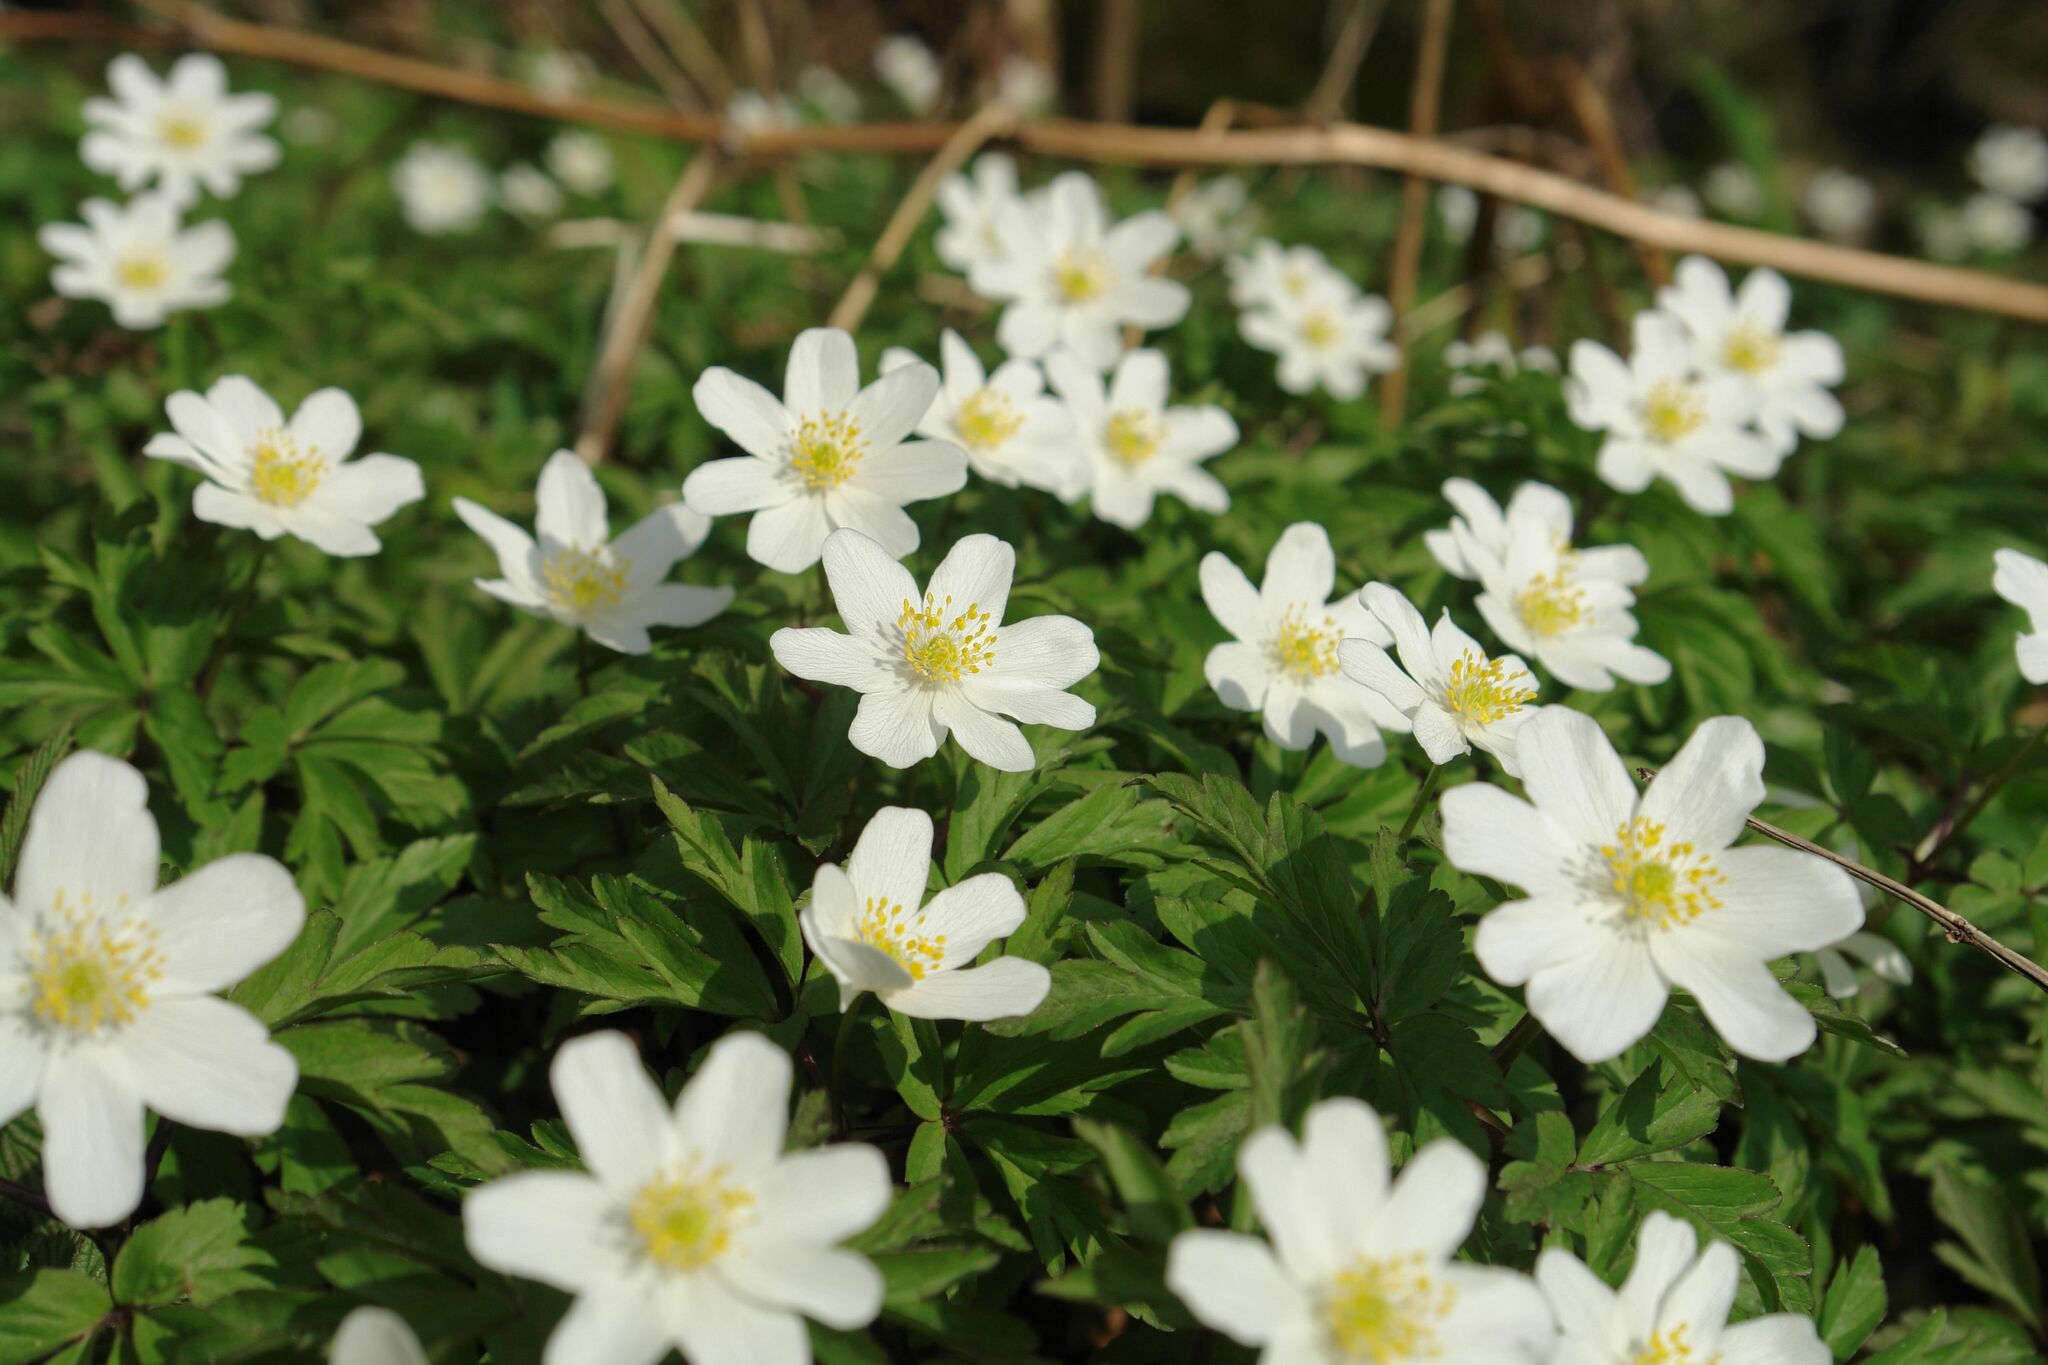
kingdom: Plantae
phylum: Tracheophyta
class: Magnoliopsida
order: Ranunculales
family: Ranunculaceae
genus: Anemone
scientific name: Anemone nemorosa
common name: Wood anemone
